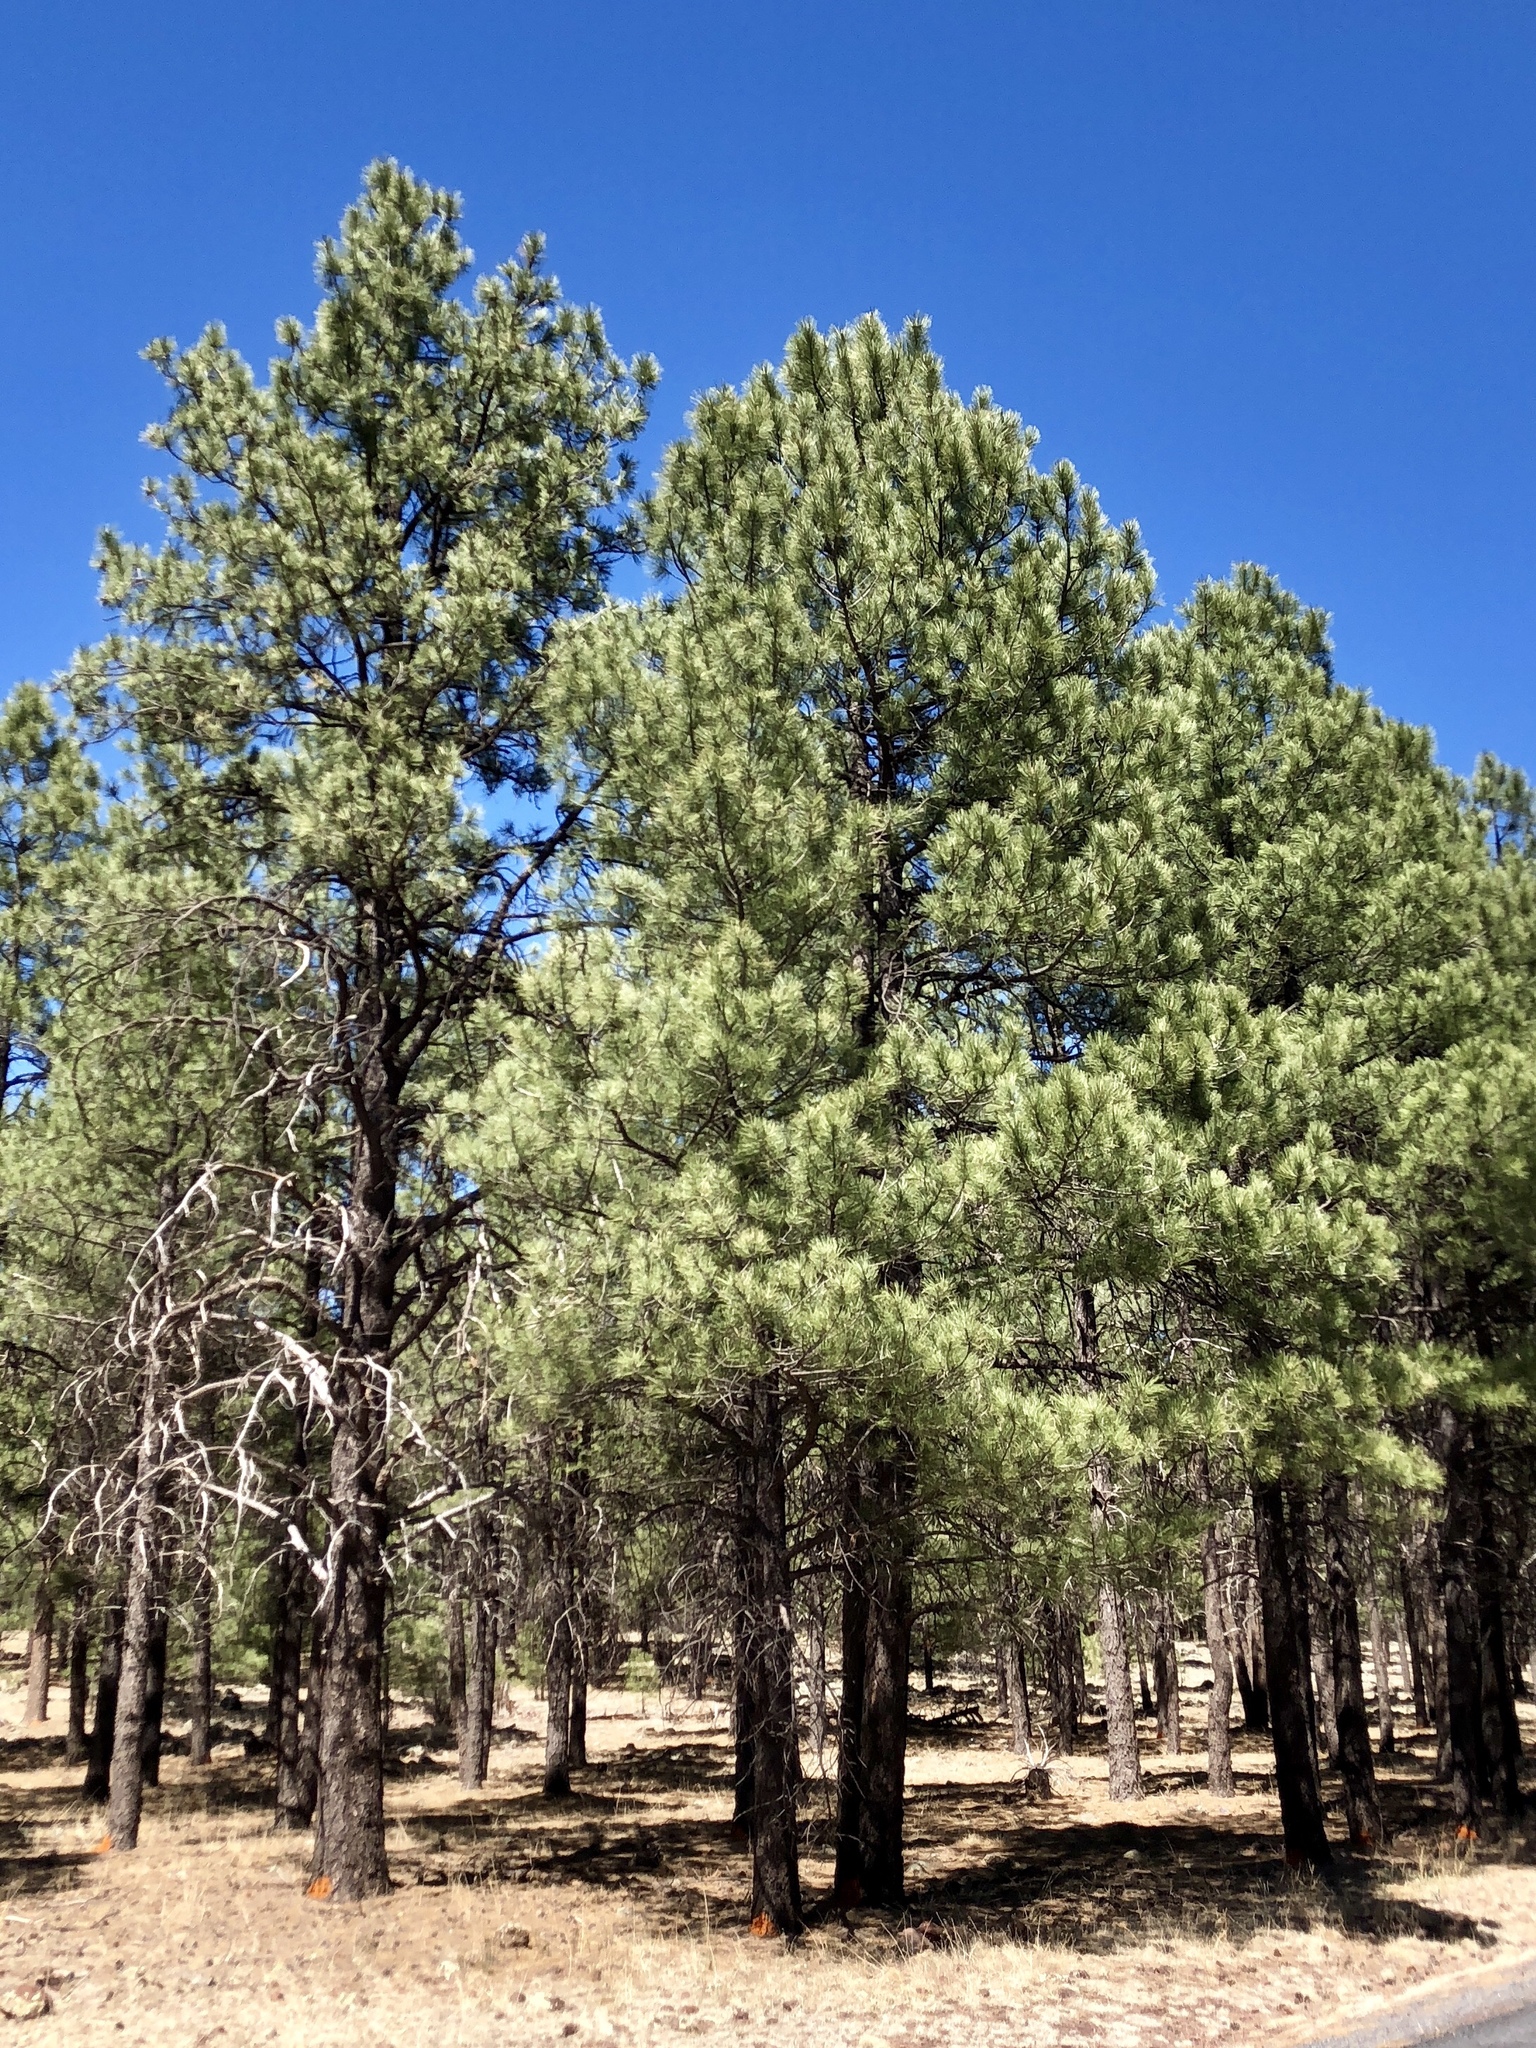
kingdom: Plantae
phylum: Tracheophyta
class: Pinopsida
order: Pinales
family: Pinaceae
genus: Pinus
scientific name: Pinus ponderosa
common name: Western yellow-pine
